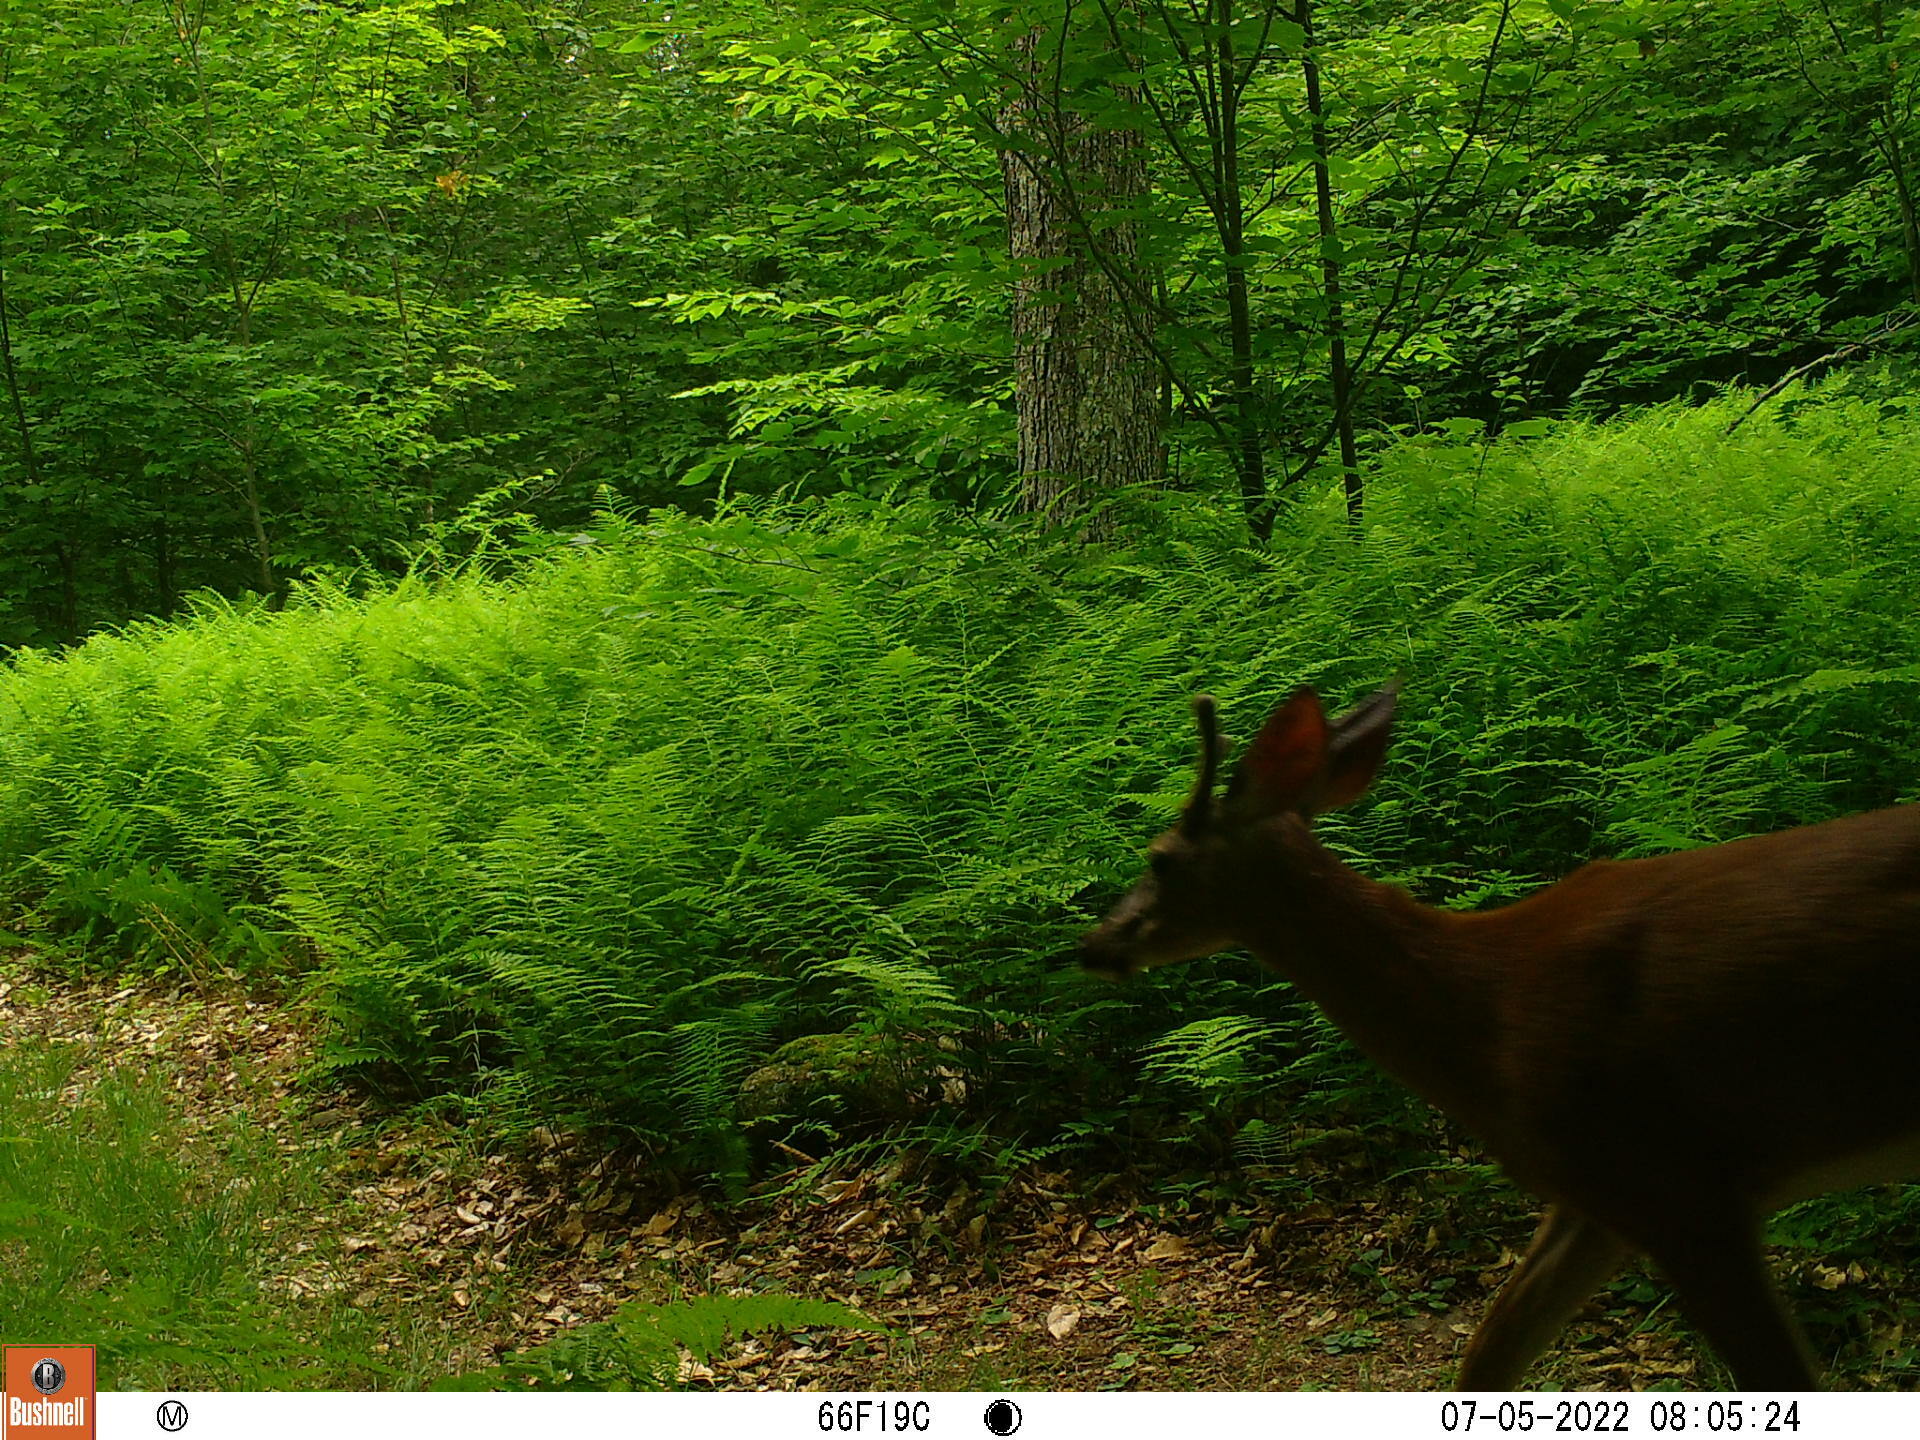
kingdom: Animalia
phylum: Chordata
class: Mammalia
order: Artiodactyla
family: Cervidae
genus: Odocoileus
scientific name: Odocoileus virginianus
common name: White-tailed deer
